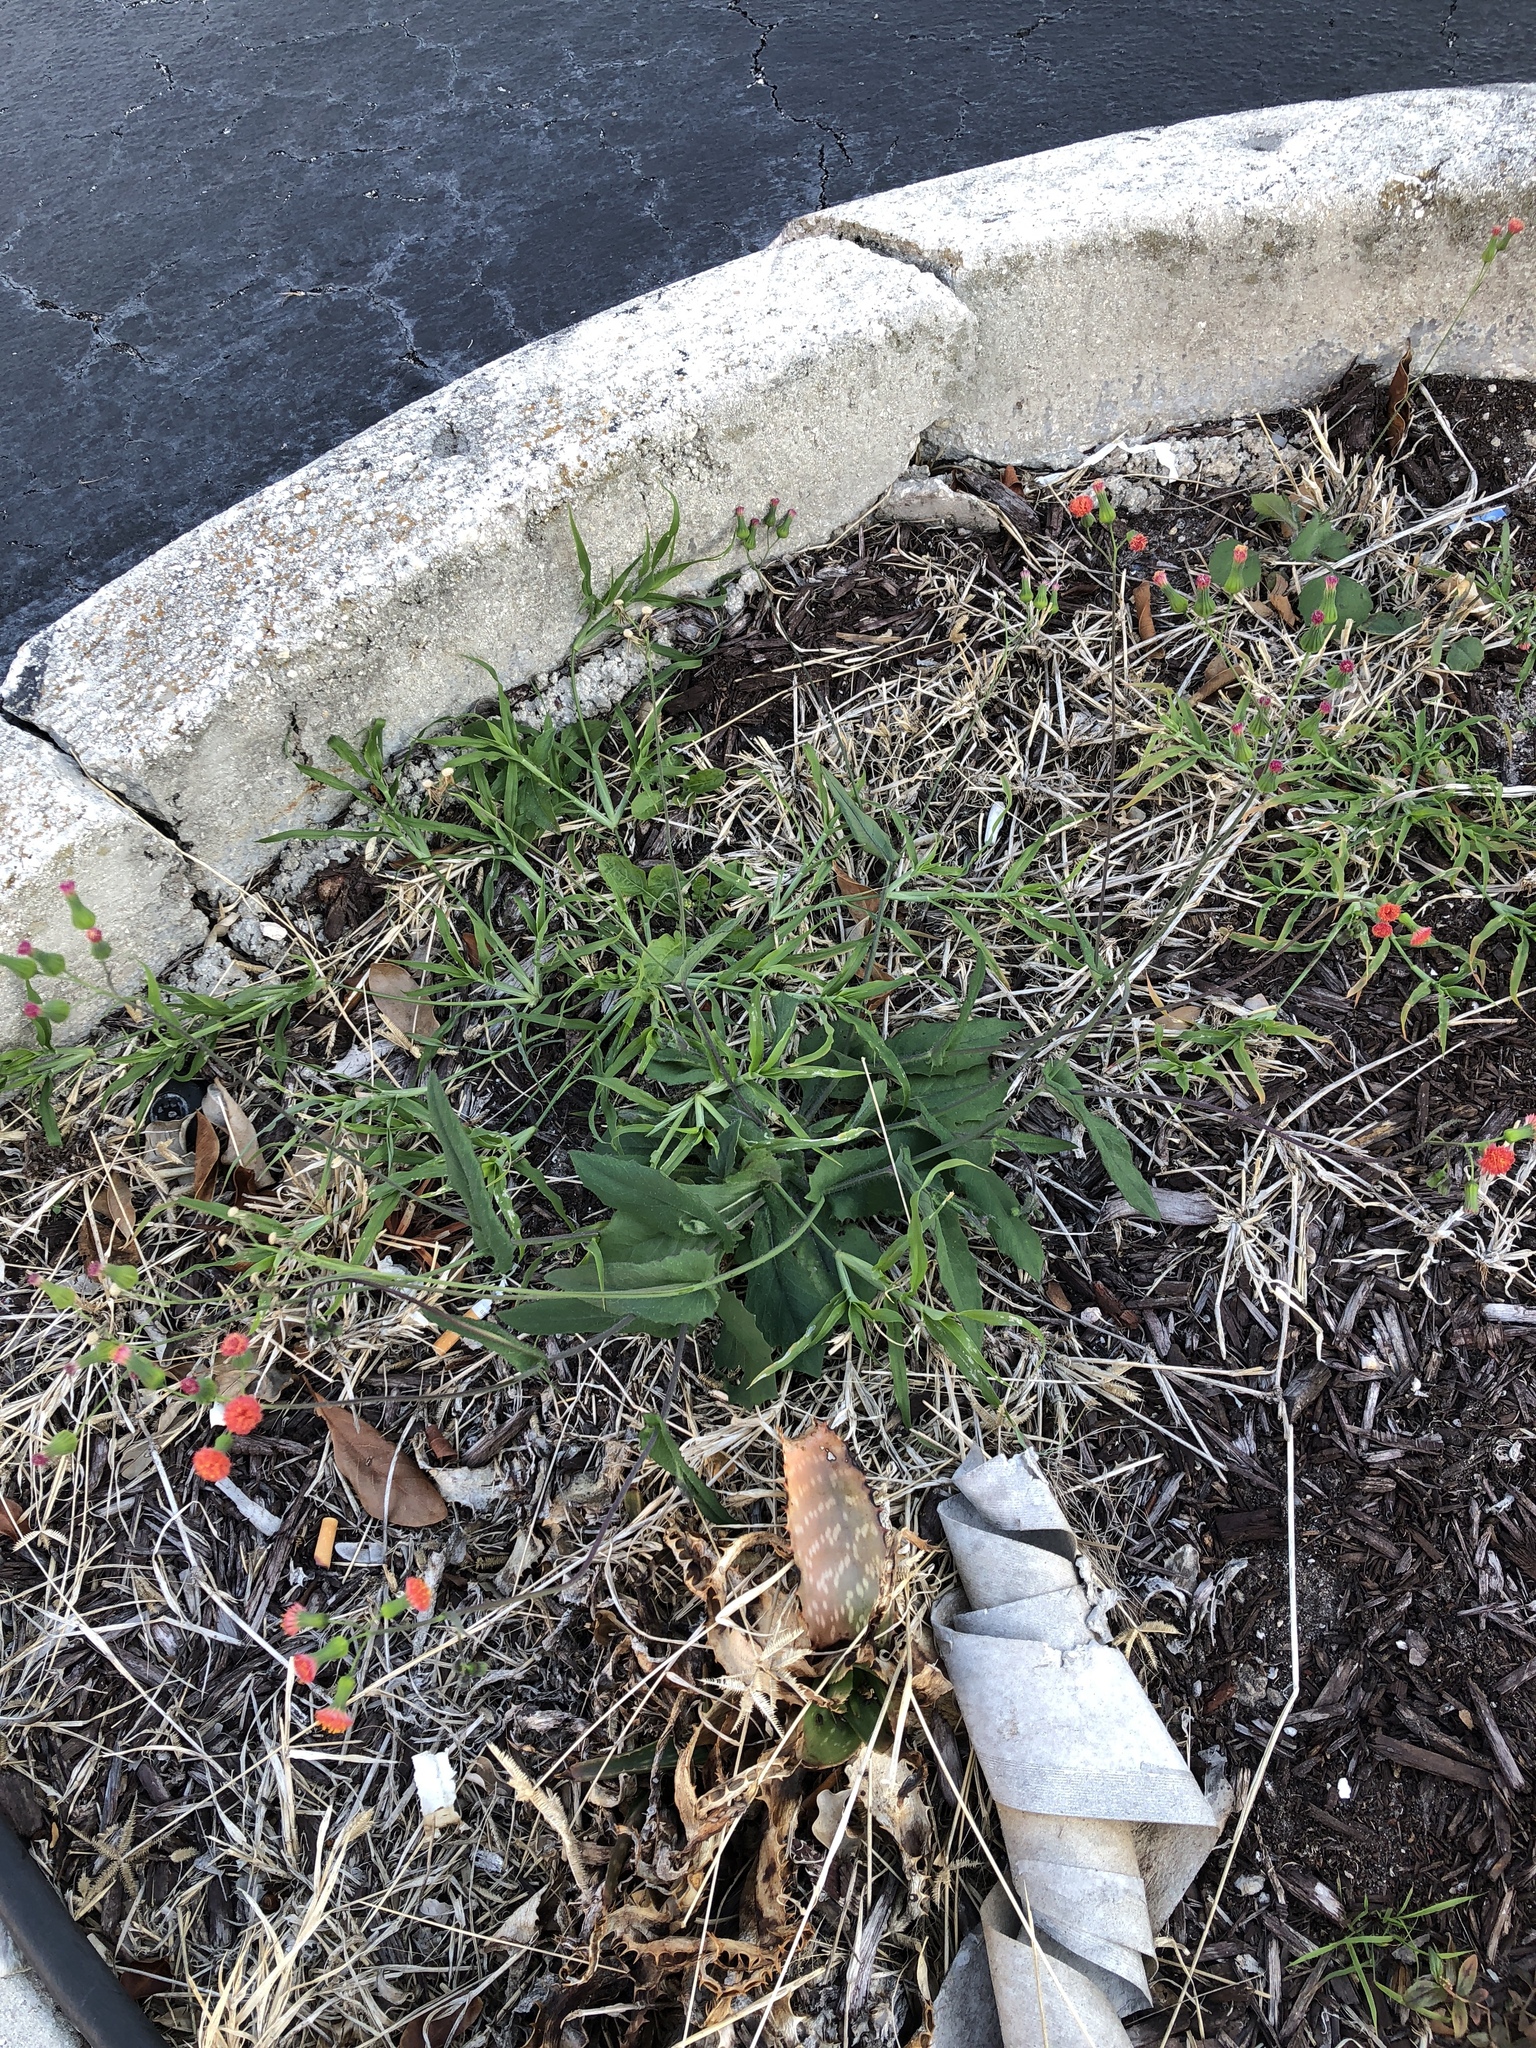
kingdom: Plantae
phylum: Tracheophyta
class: Magnoliopsida
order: Asterales
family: Asteraceae
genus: Emilia
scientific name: Emilia fosbergii
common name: Florida tasselflower
